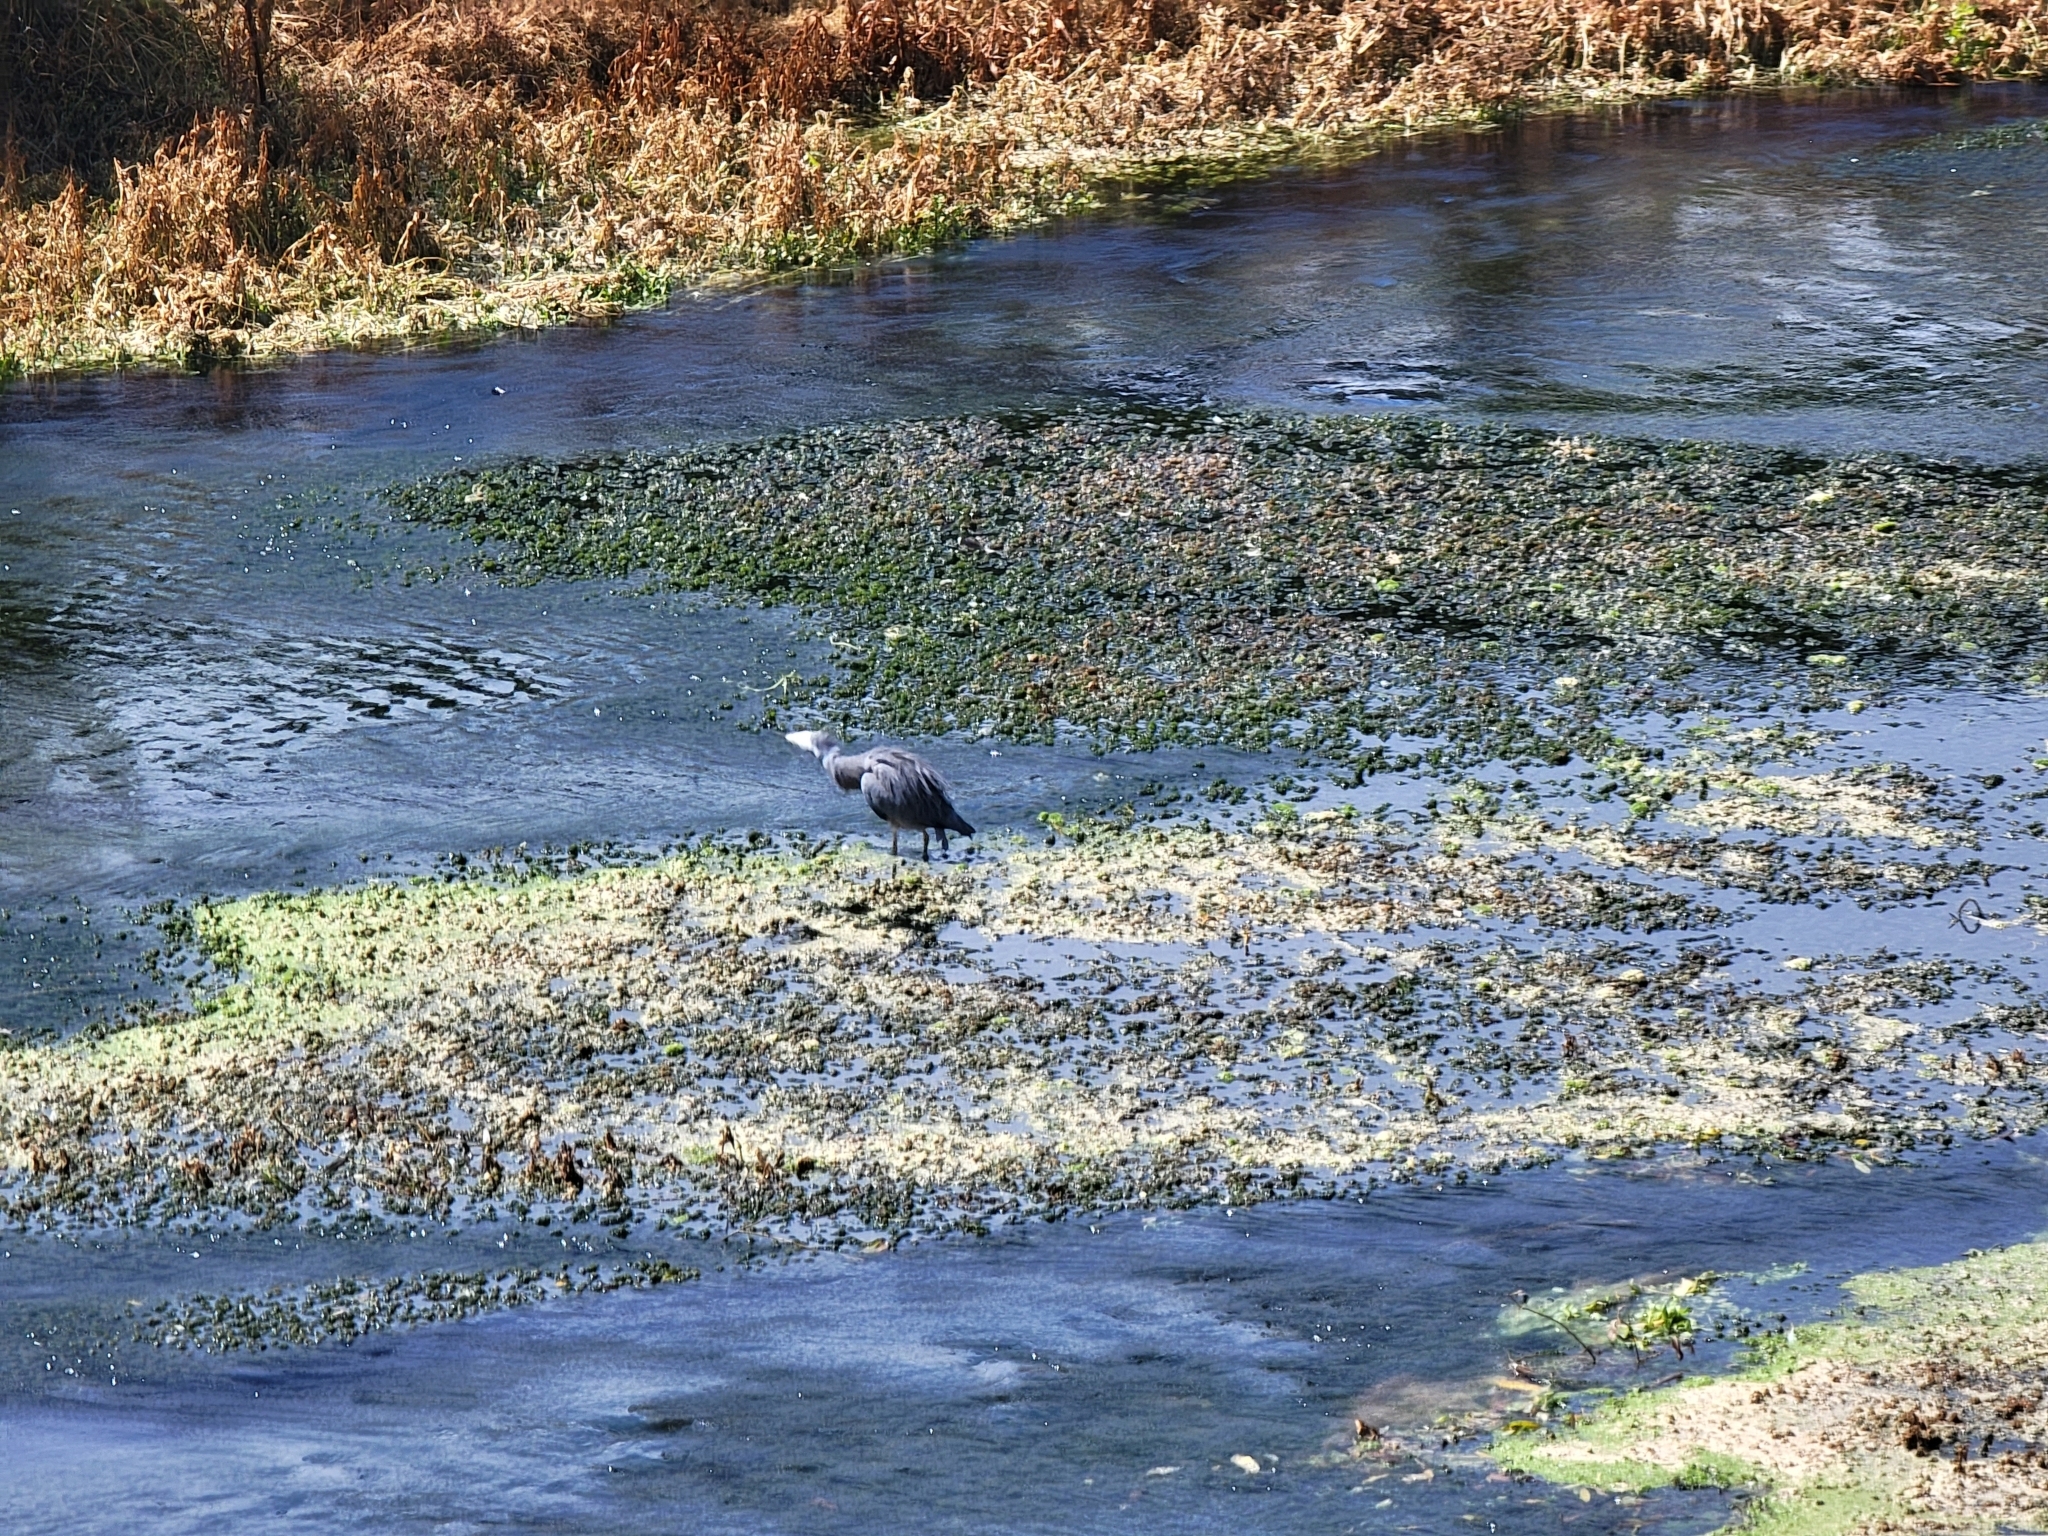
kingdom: Animalia
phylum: Chordata
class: Aves
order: Pelecaniformes
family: Ardeidae
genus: Egretta
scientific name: Egretta novaehollandiae
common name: White-faced heron
